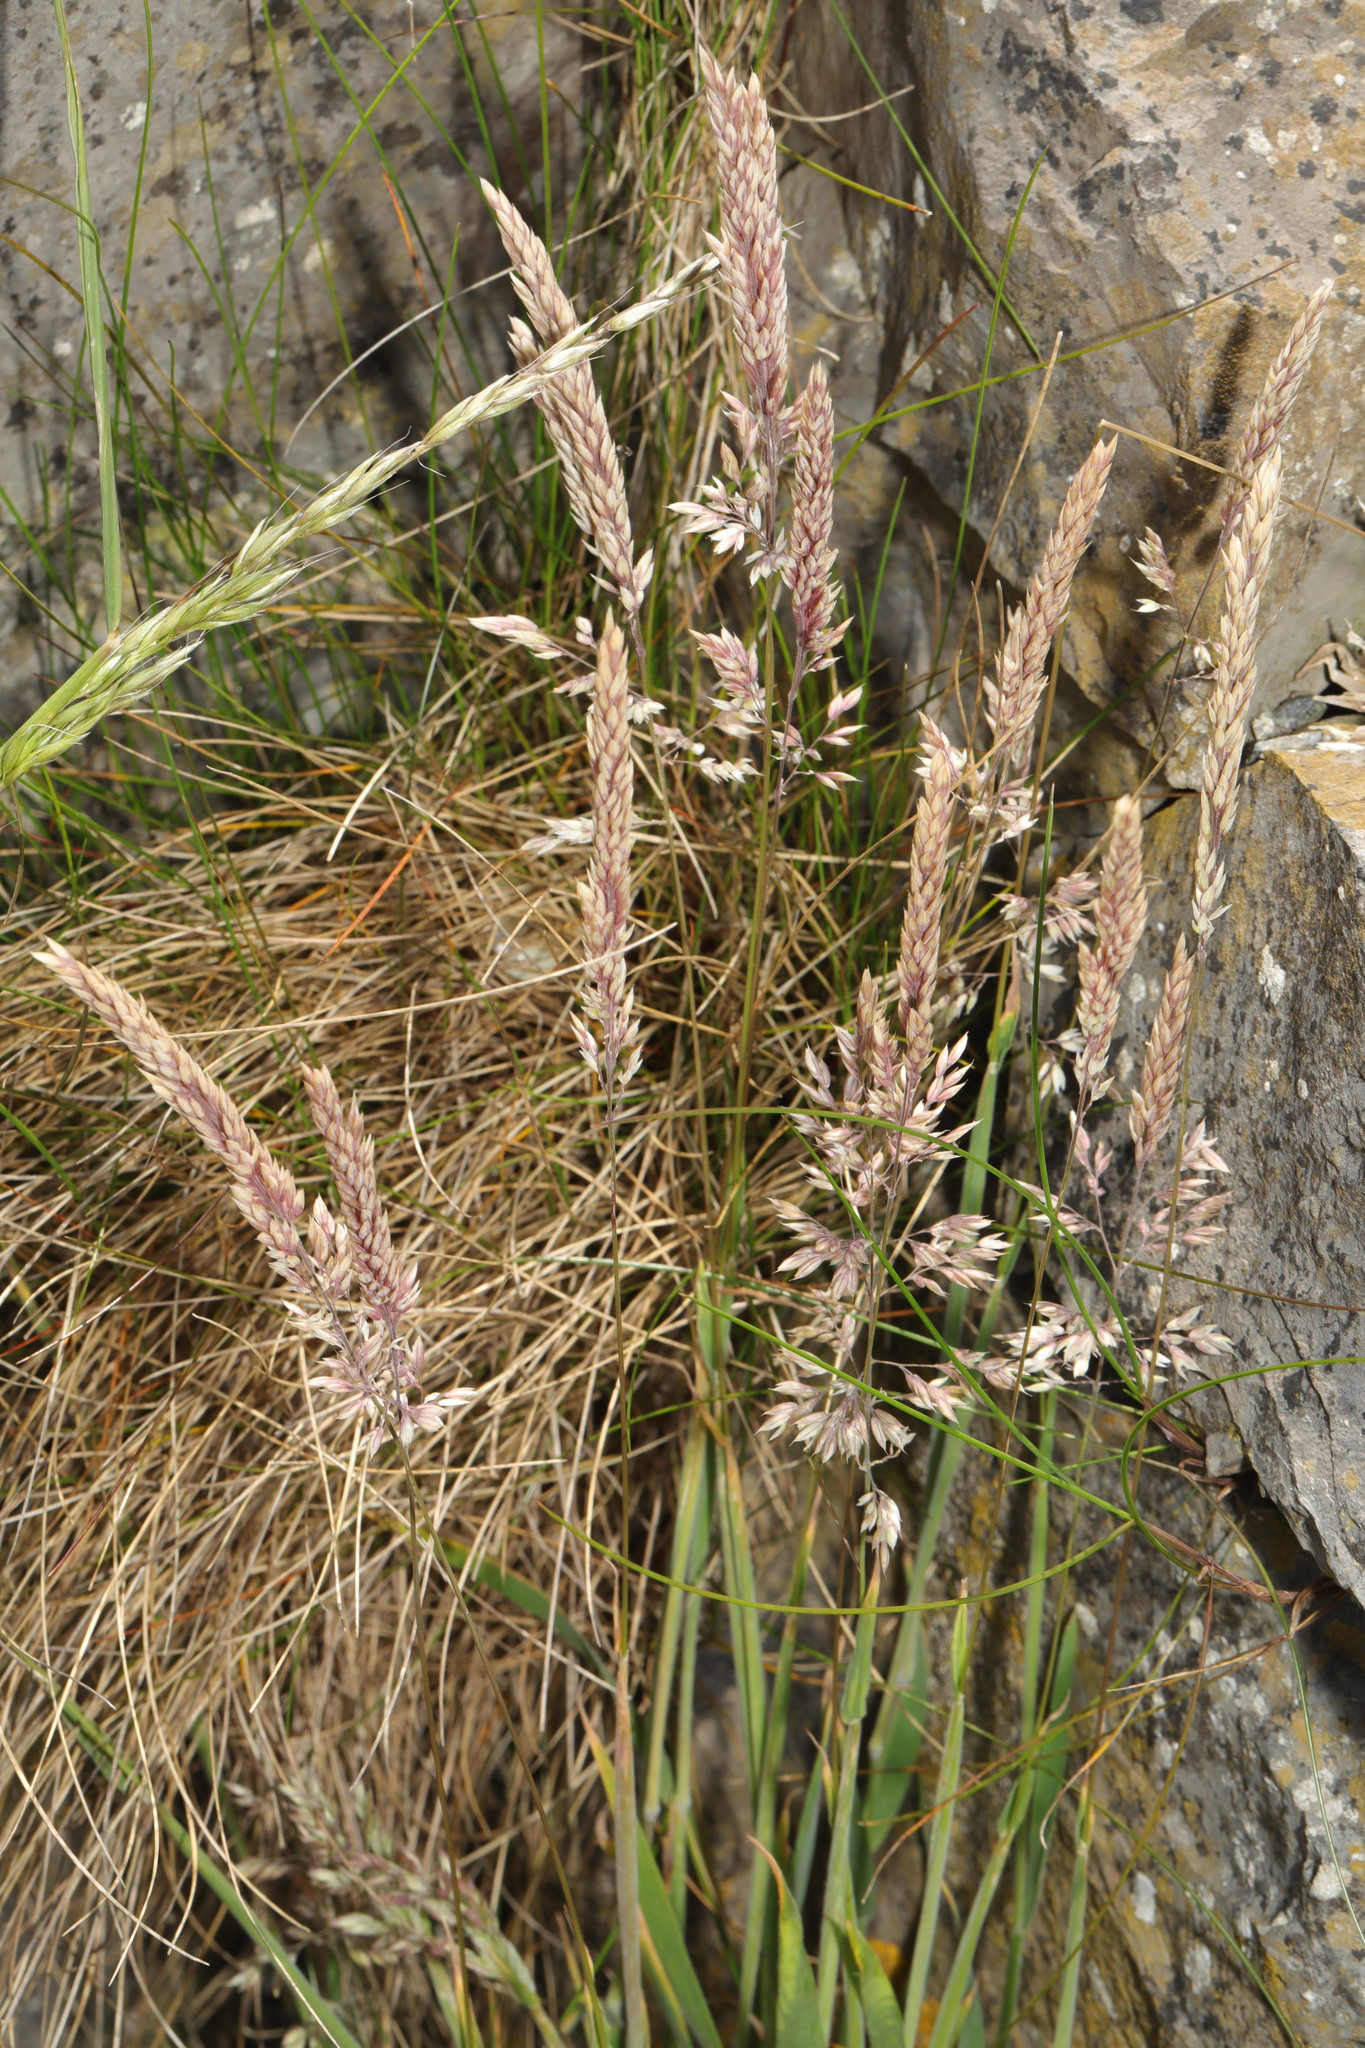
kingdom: Plantae
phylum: Tracheophyta
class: Liliopsida
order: Poales
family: Poaceae
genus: Holcus
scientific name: Holcus lanatus
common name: Yorkshire-fog
